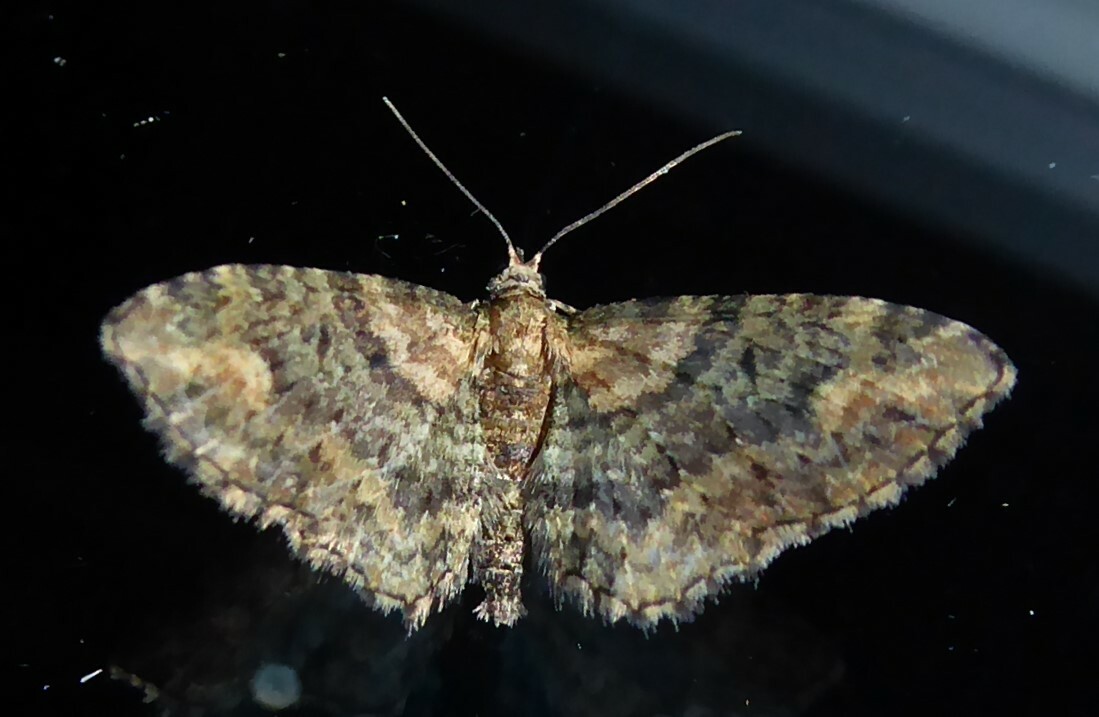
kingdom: Animalia
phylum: Arthropoda
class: Insecta
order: Lepidoptera
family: Geometridae
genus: Pasiphilodes
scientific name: Pasiphilodes testulata
